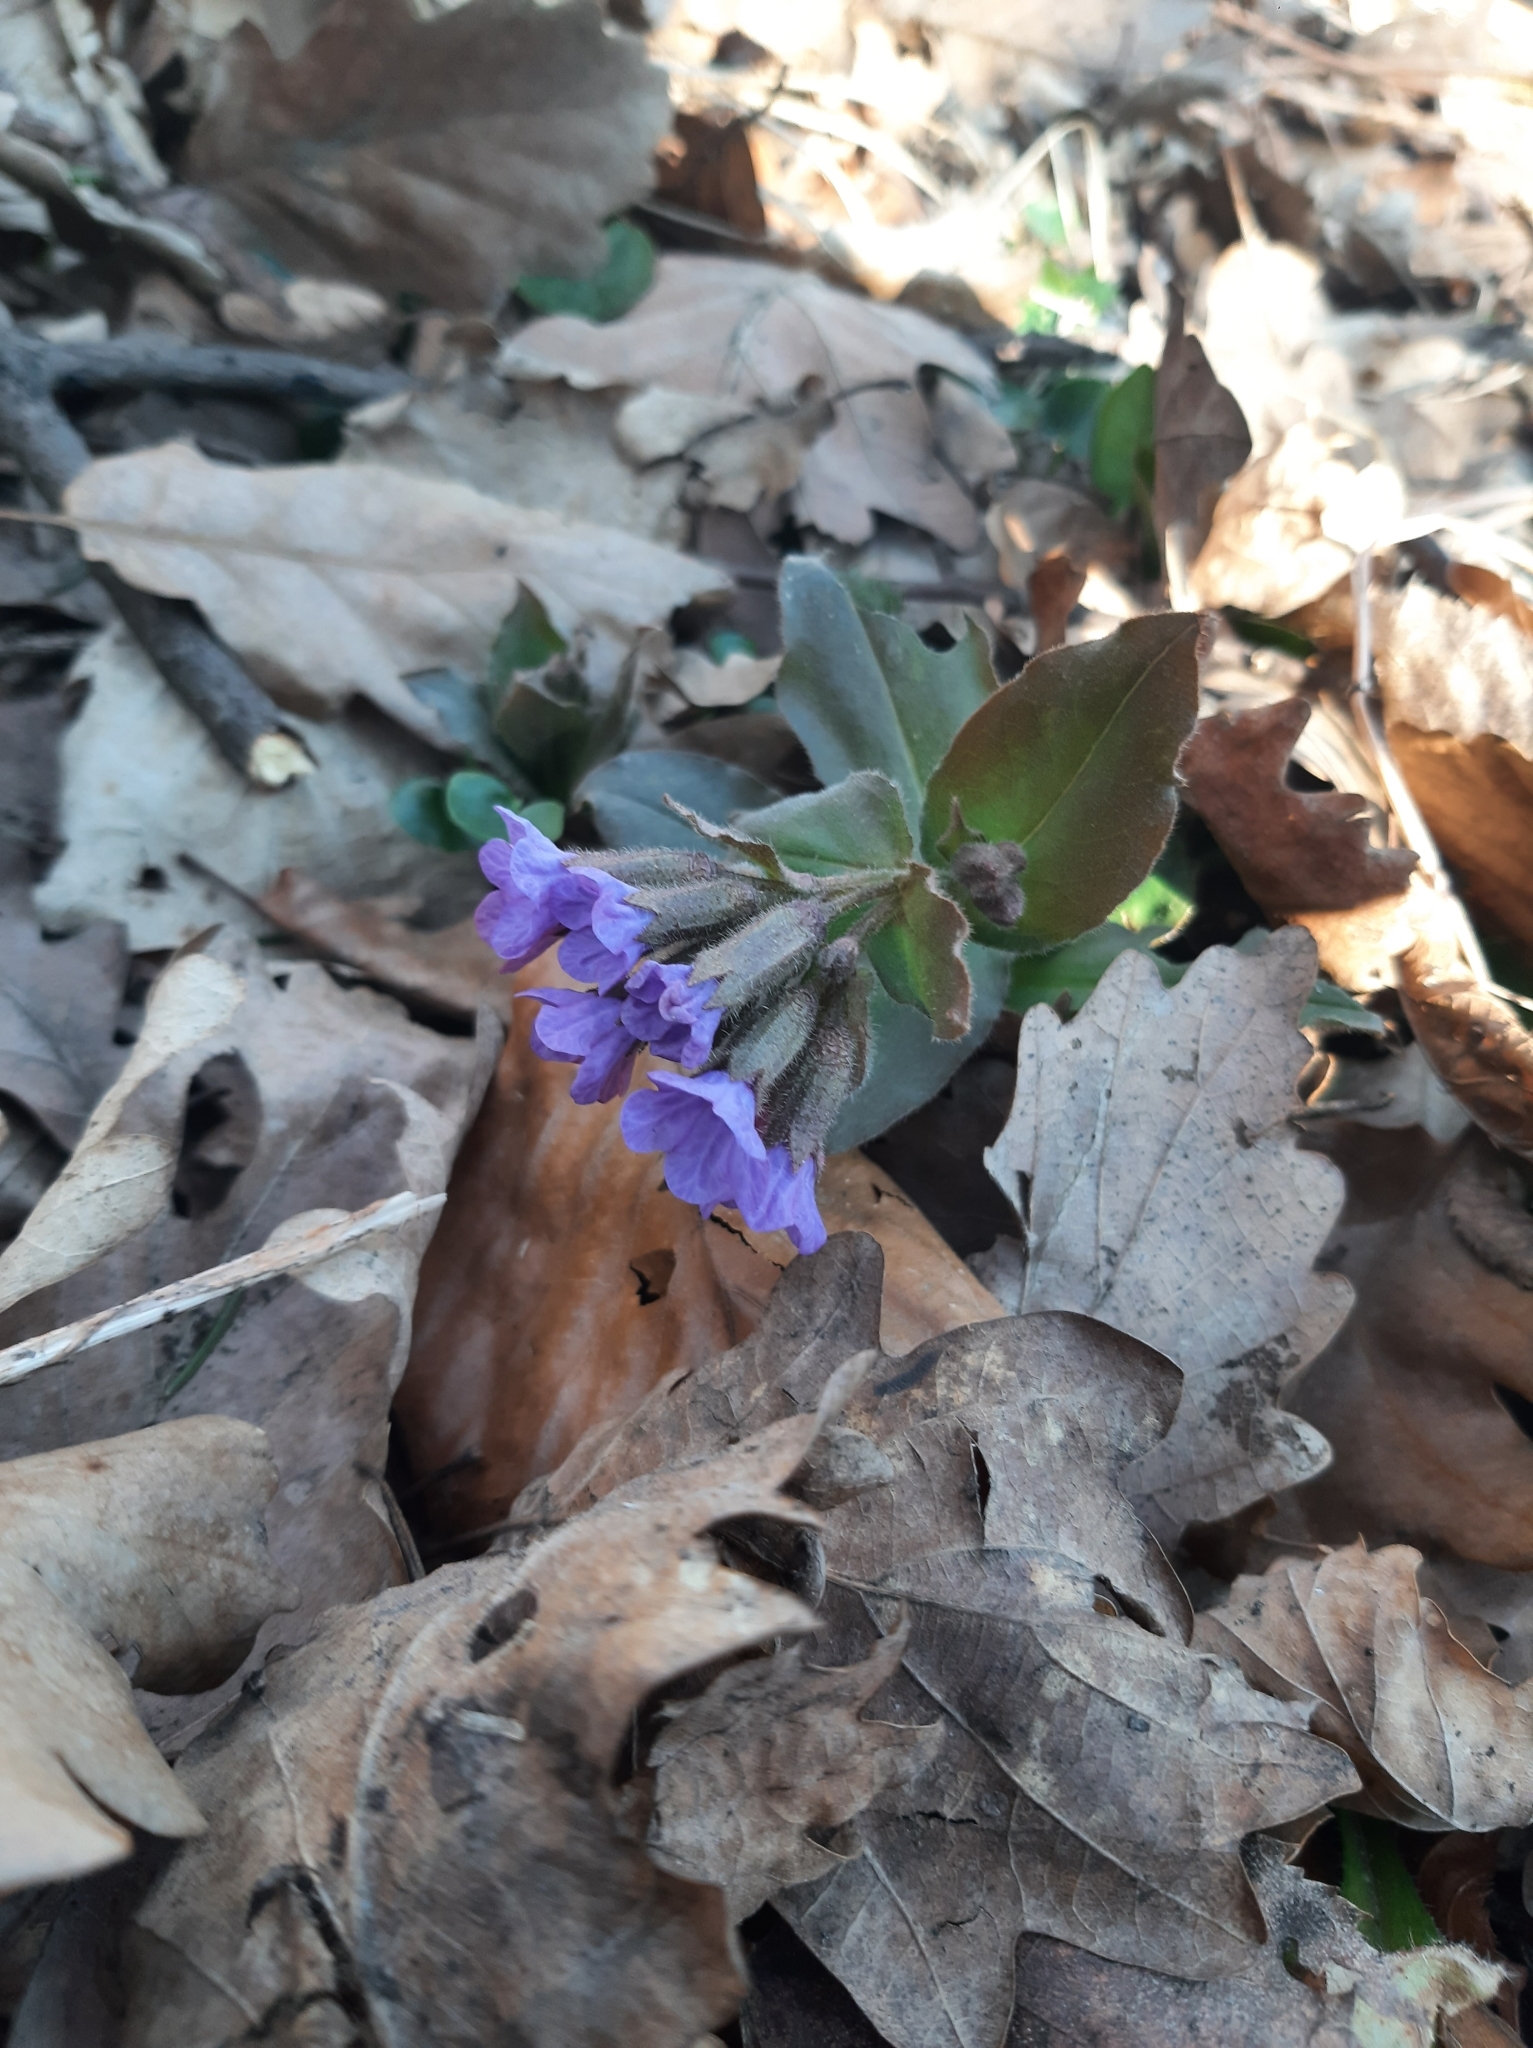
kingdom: Plantae
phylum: Tracheophyta
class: Magnoliopsida
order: Boraginales
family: Boraginaceae
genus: Pulmonaria
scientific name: Pulmonaria obscura
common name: Suffolk lungwort
